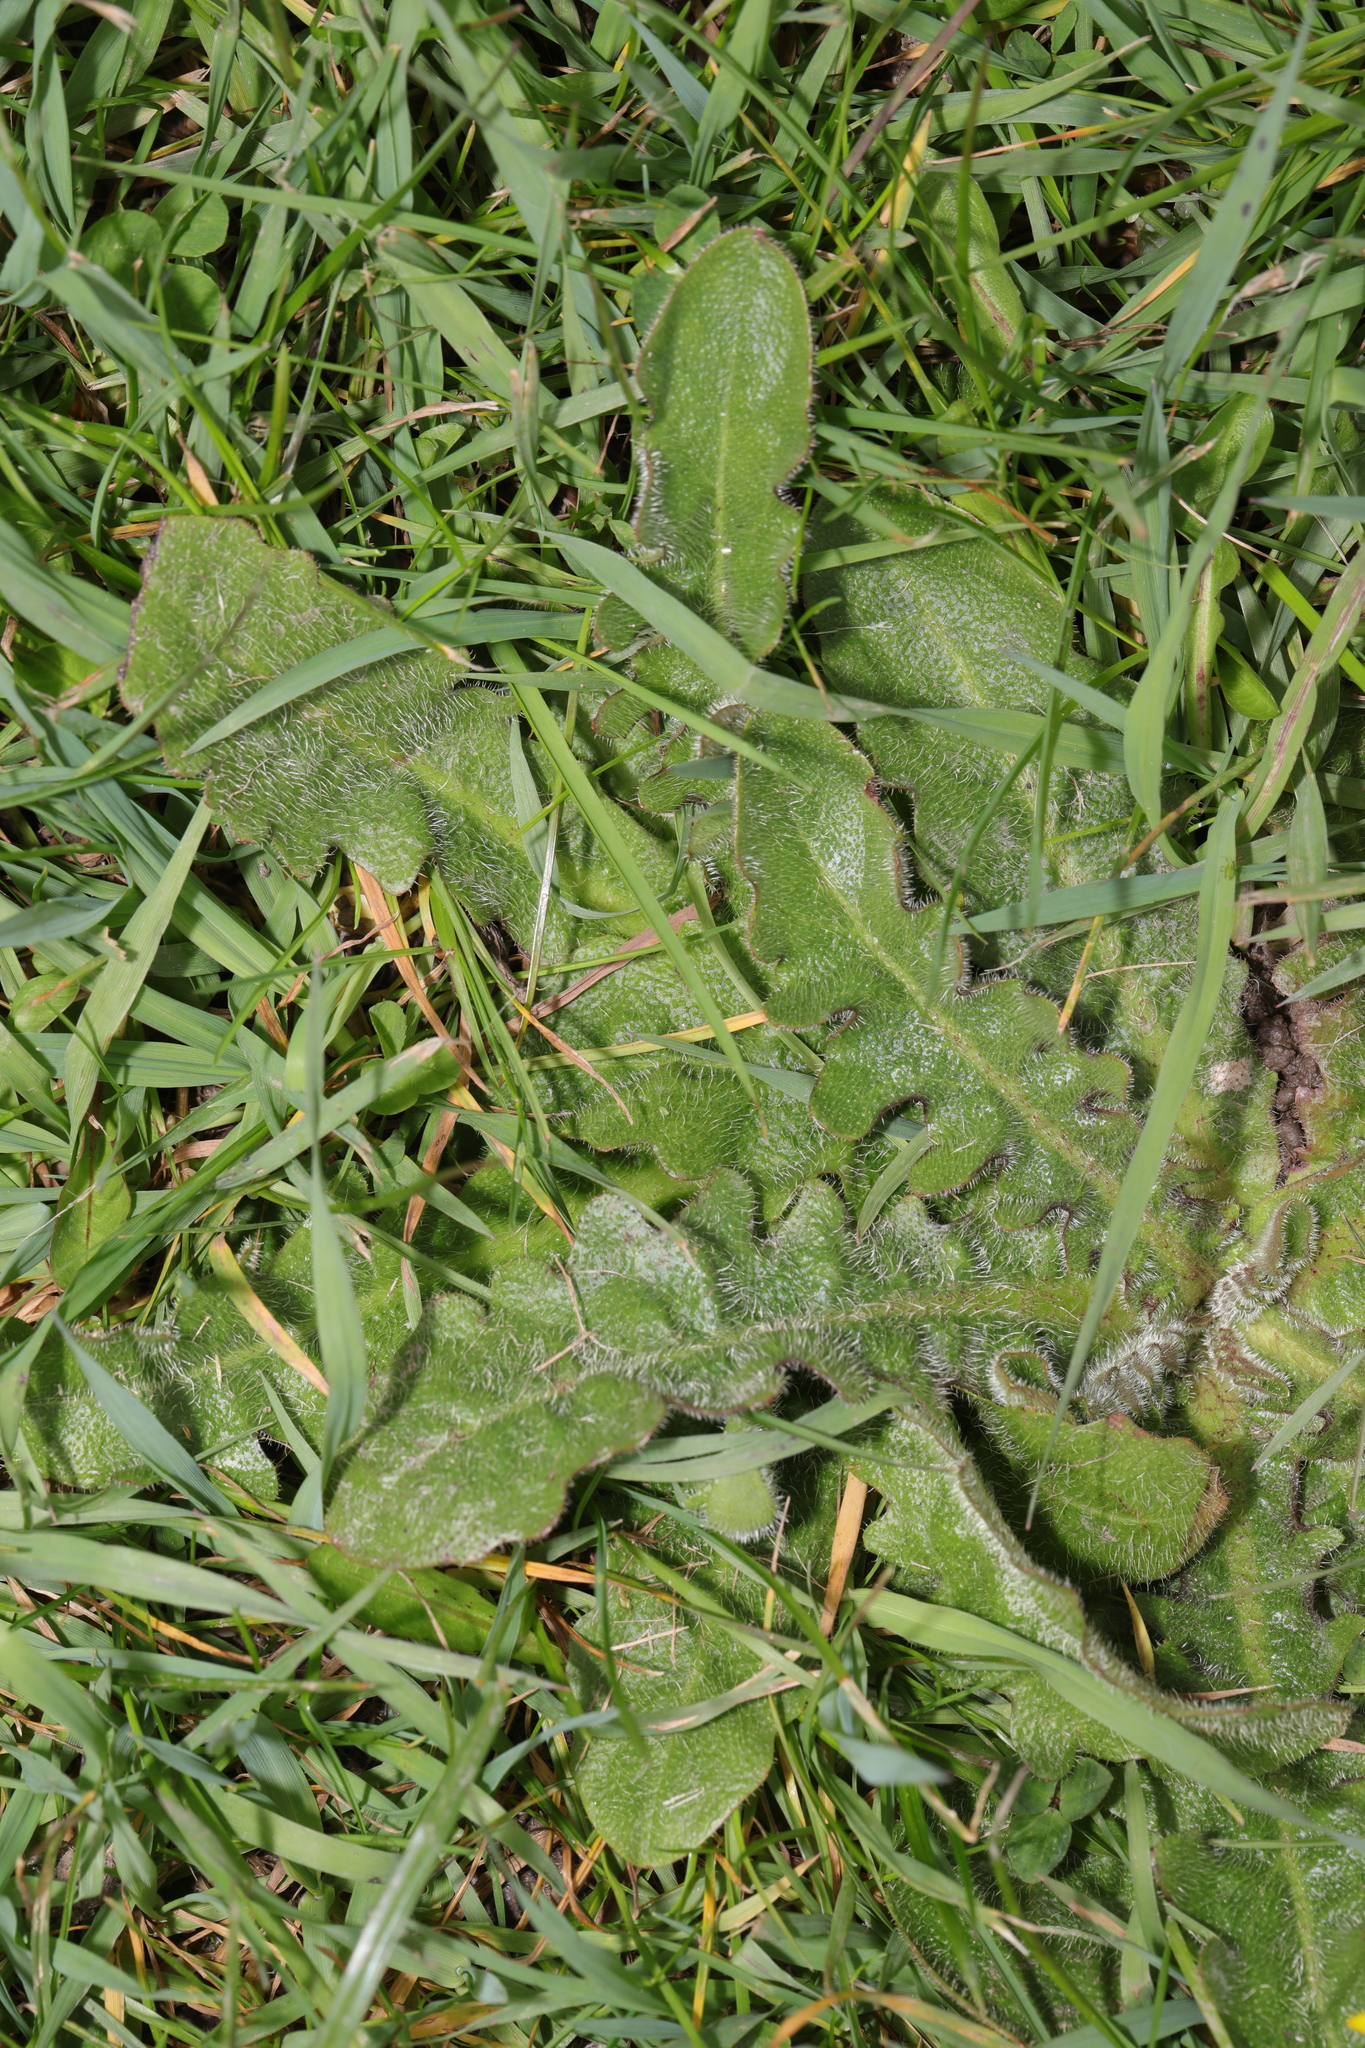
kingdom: Plantae
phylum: Tracheophyta
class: Magnoliopsida
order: Asterales
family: Asteraceae
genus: Hypochaeris
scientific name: Hypochaeris radicata
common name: Flatweed
